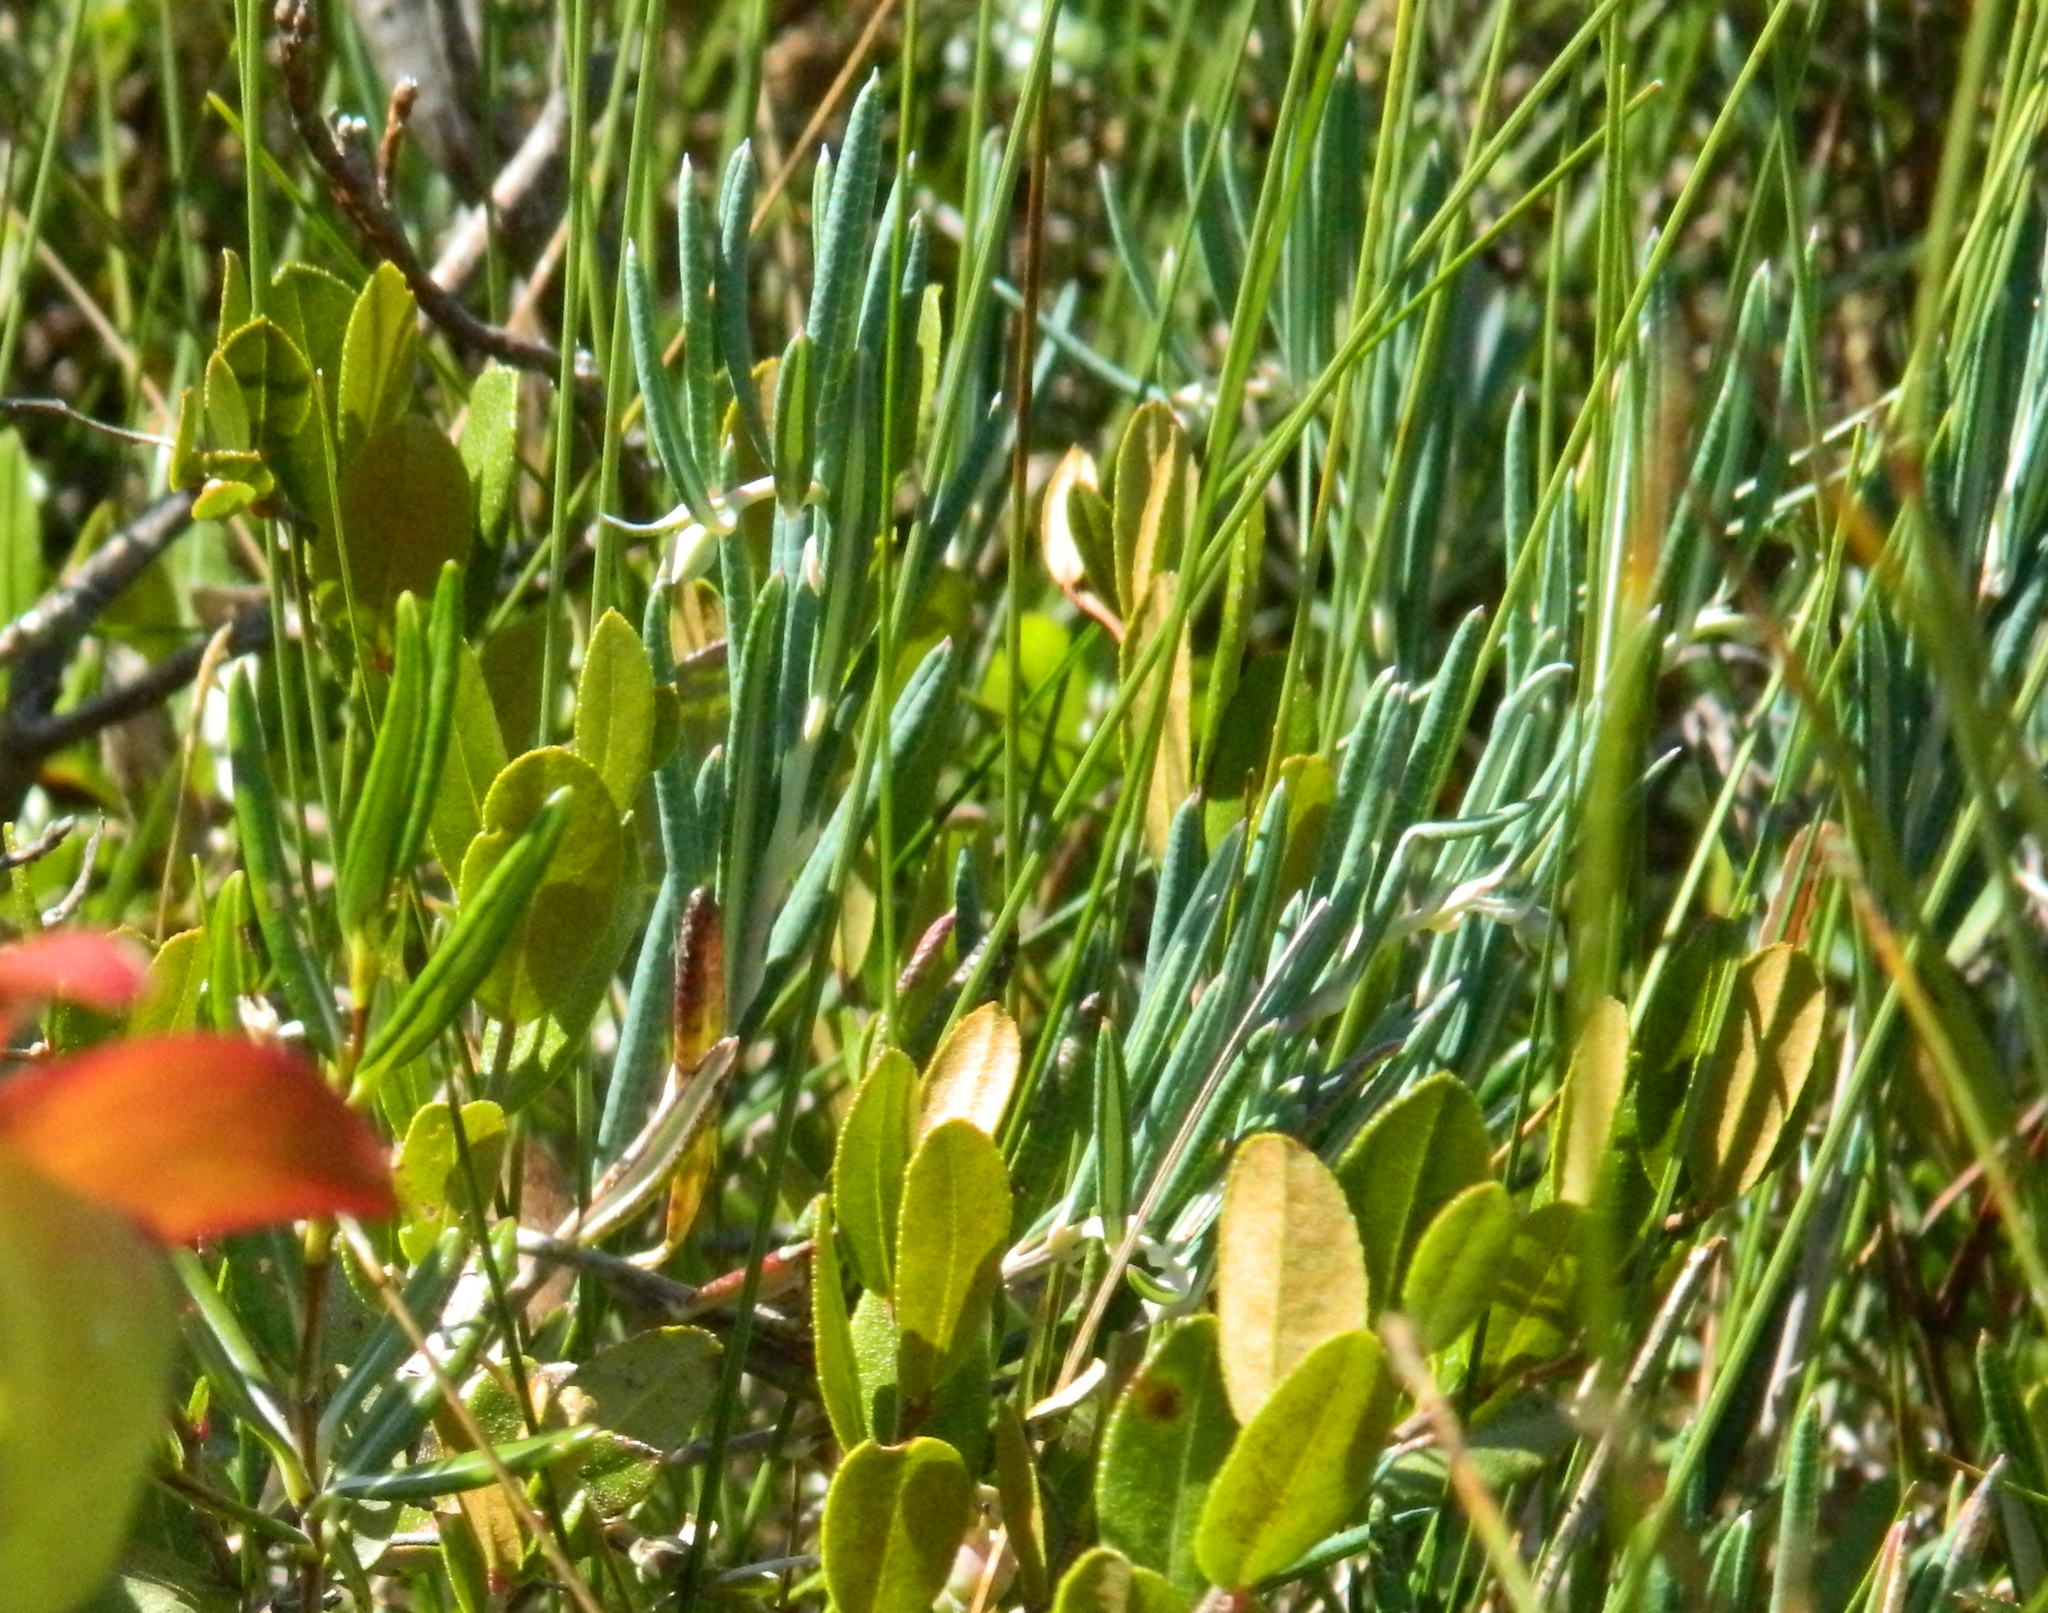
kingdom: Plantae
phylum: Tracheophyta
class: Magnoliopsida
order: Ericales
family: Ericaceae
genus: Andromeda
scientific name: Andromeda polifolia
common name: Bog-rosemary
